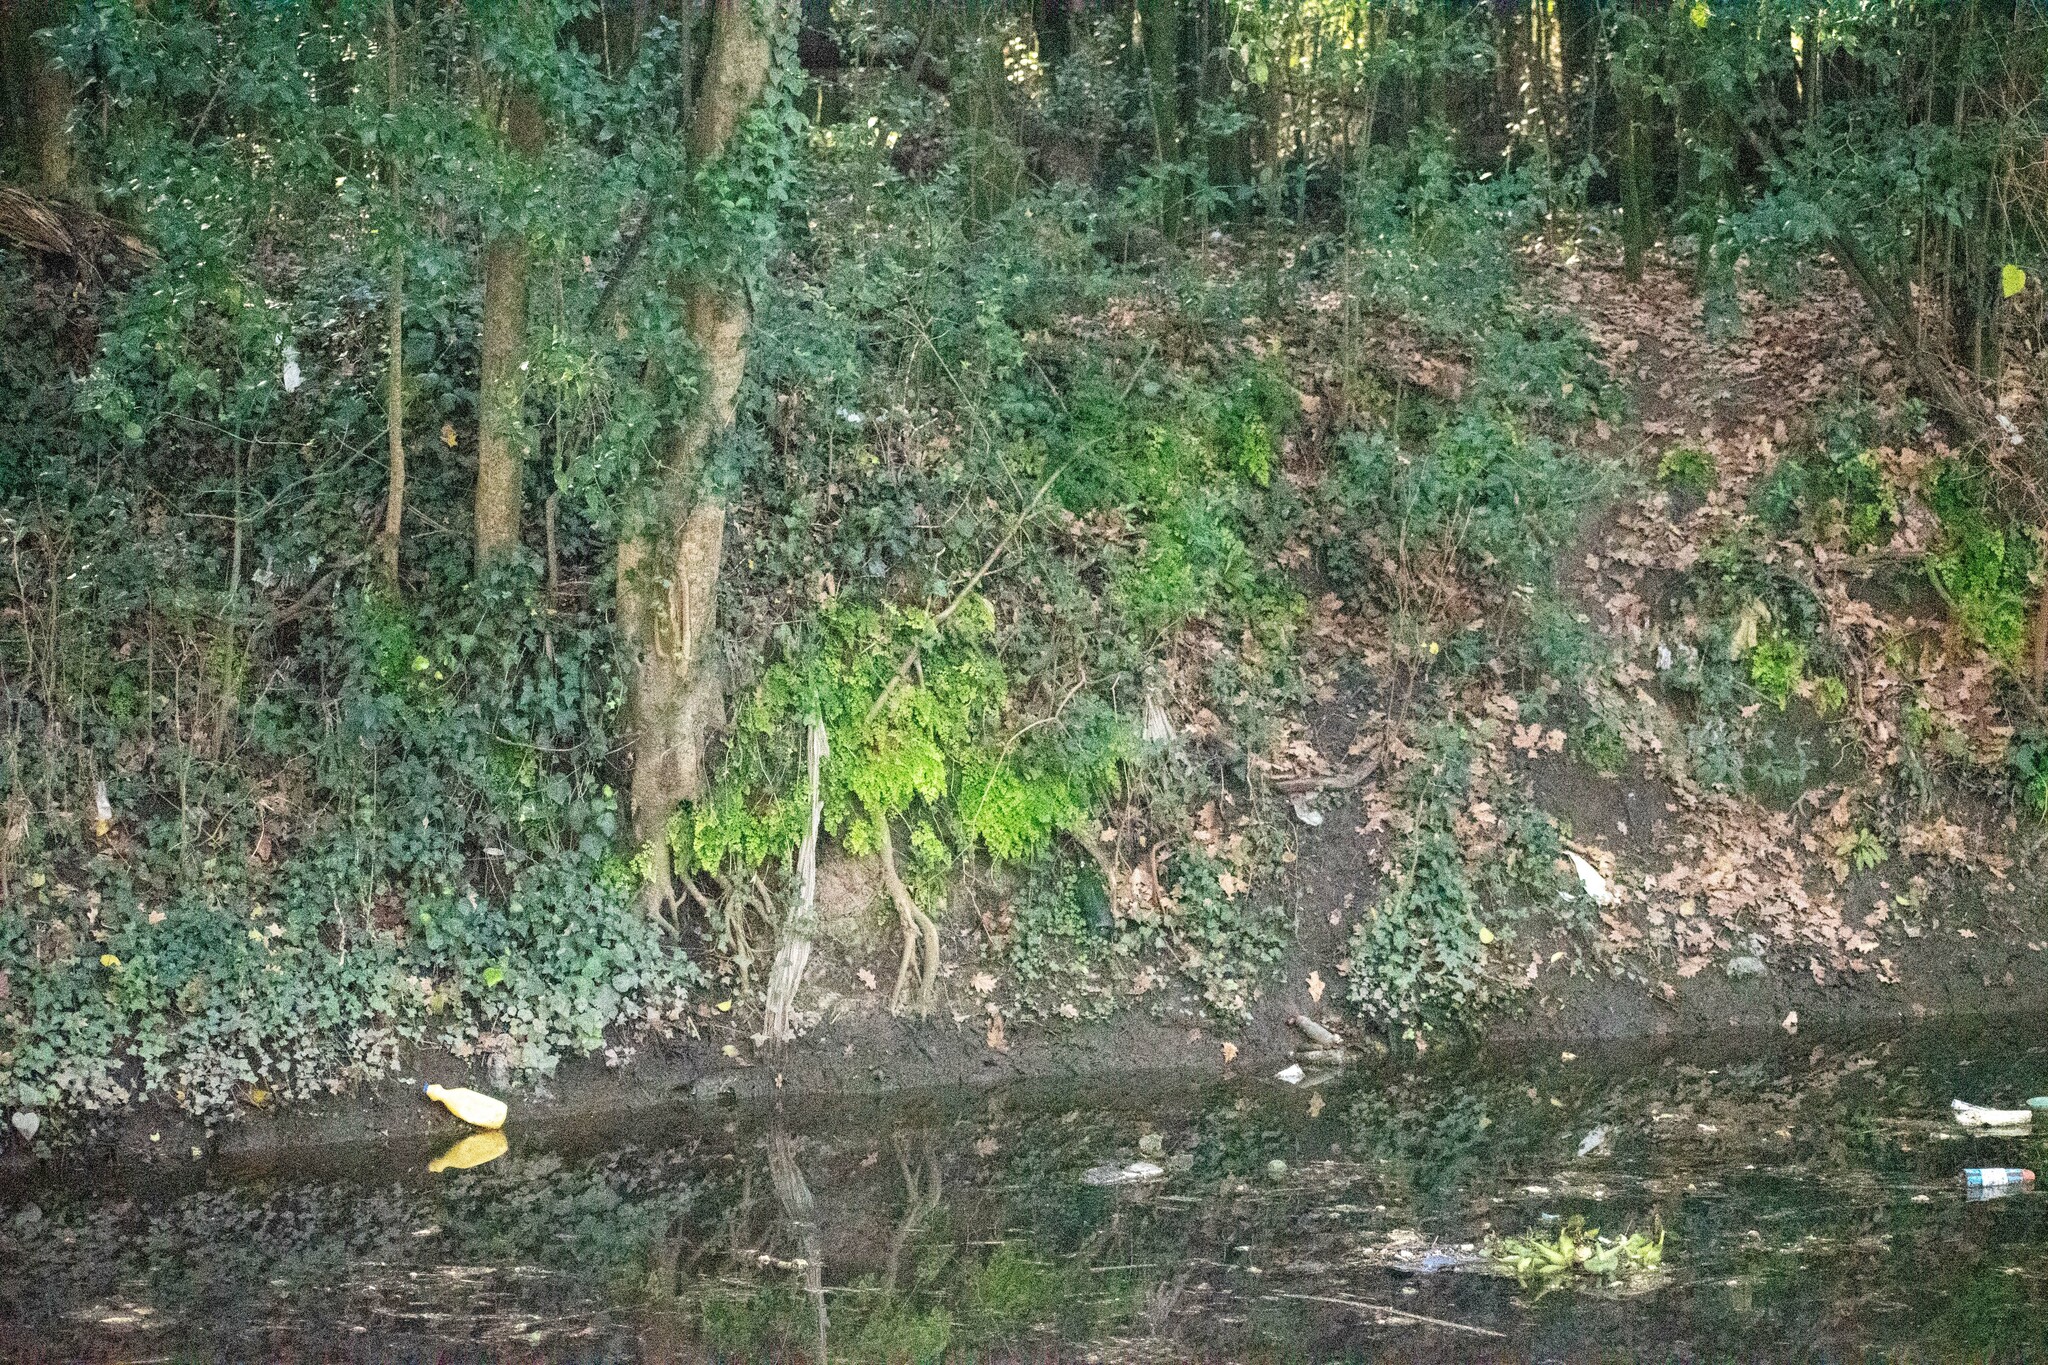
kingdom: Plantae
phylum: Tracheophyta
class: Polypodiopsida
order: Polypodiales
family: Pteridaceae
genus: Adiantum
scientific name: Adiantum raddianum
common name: Delta maidenhair fern
